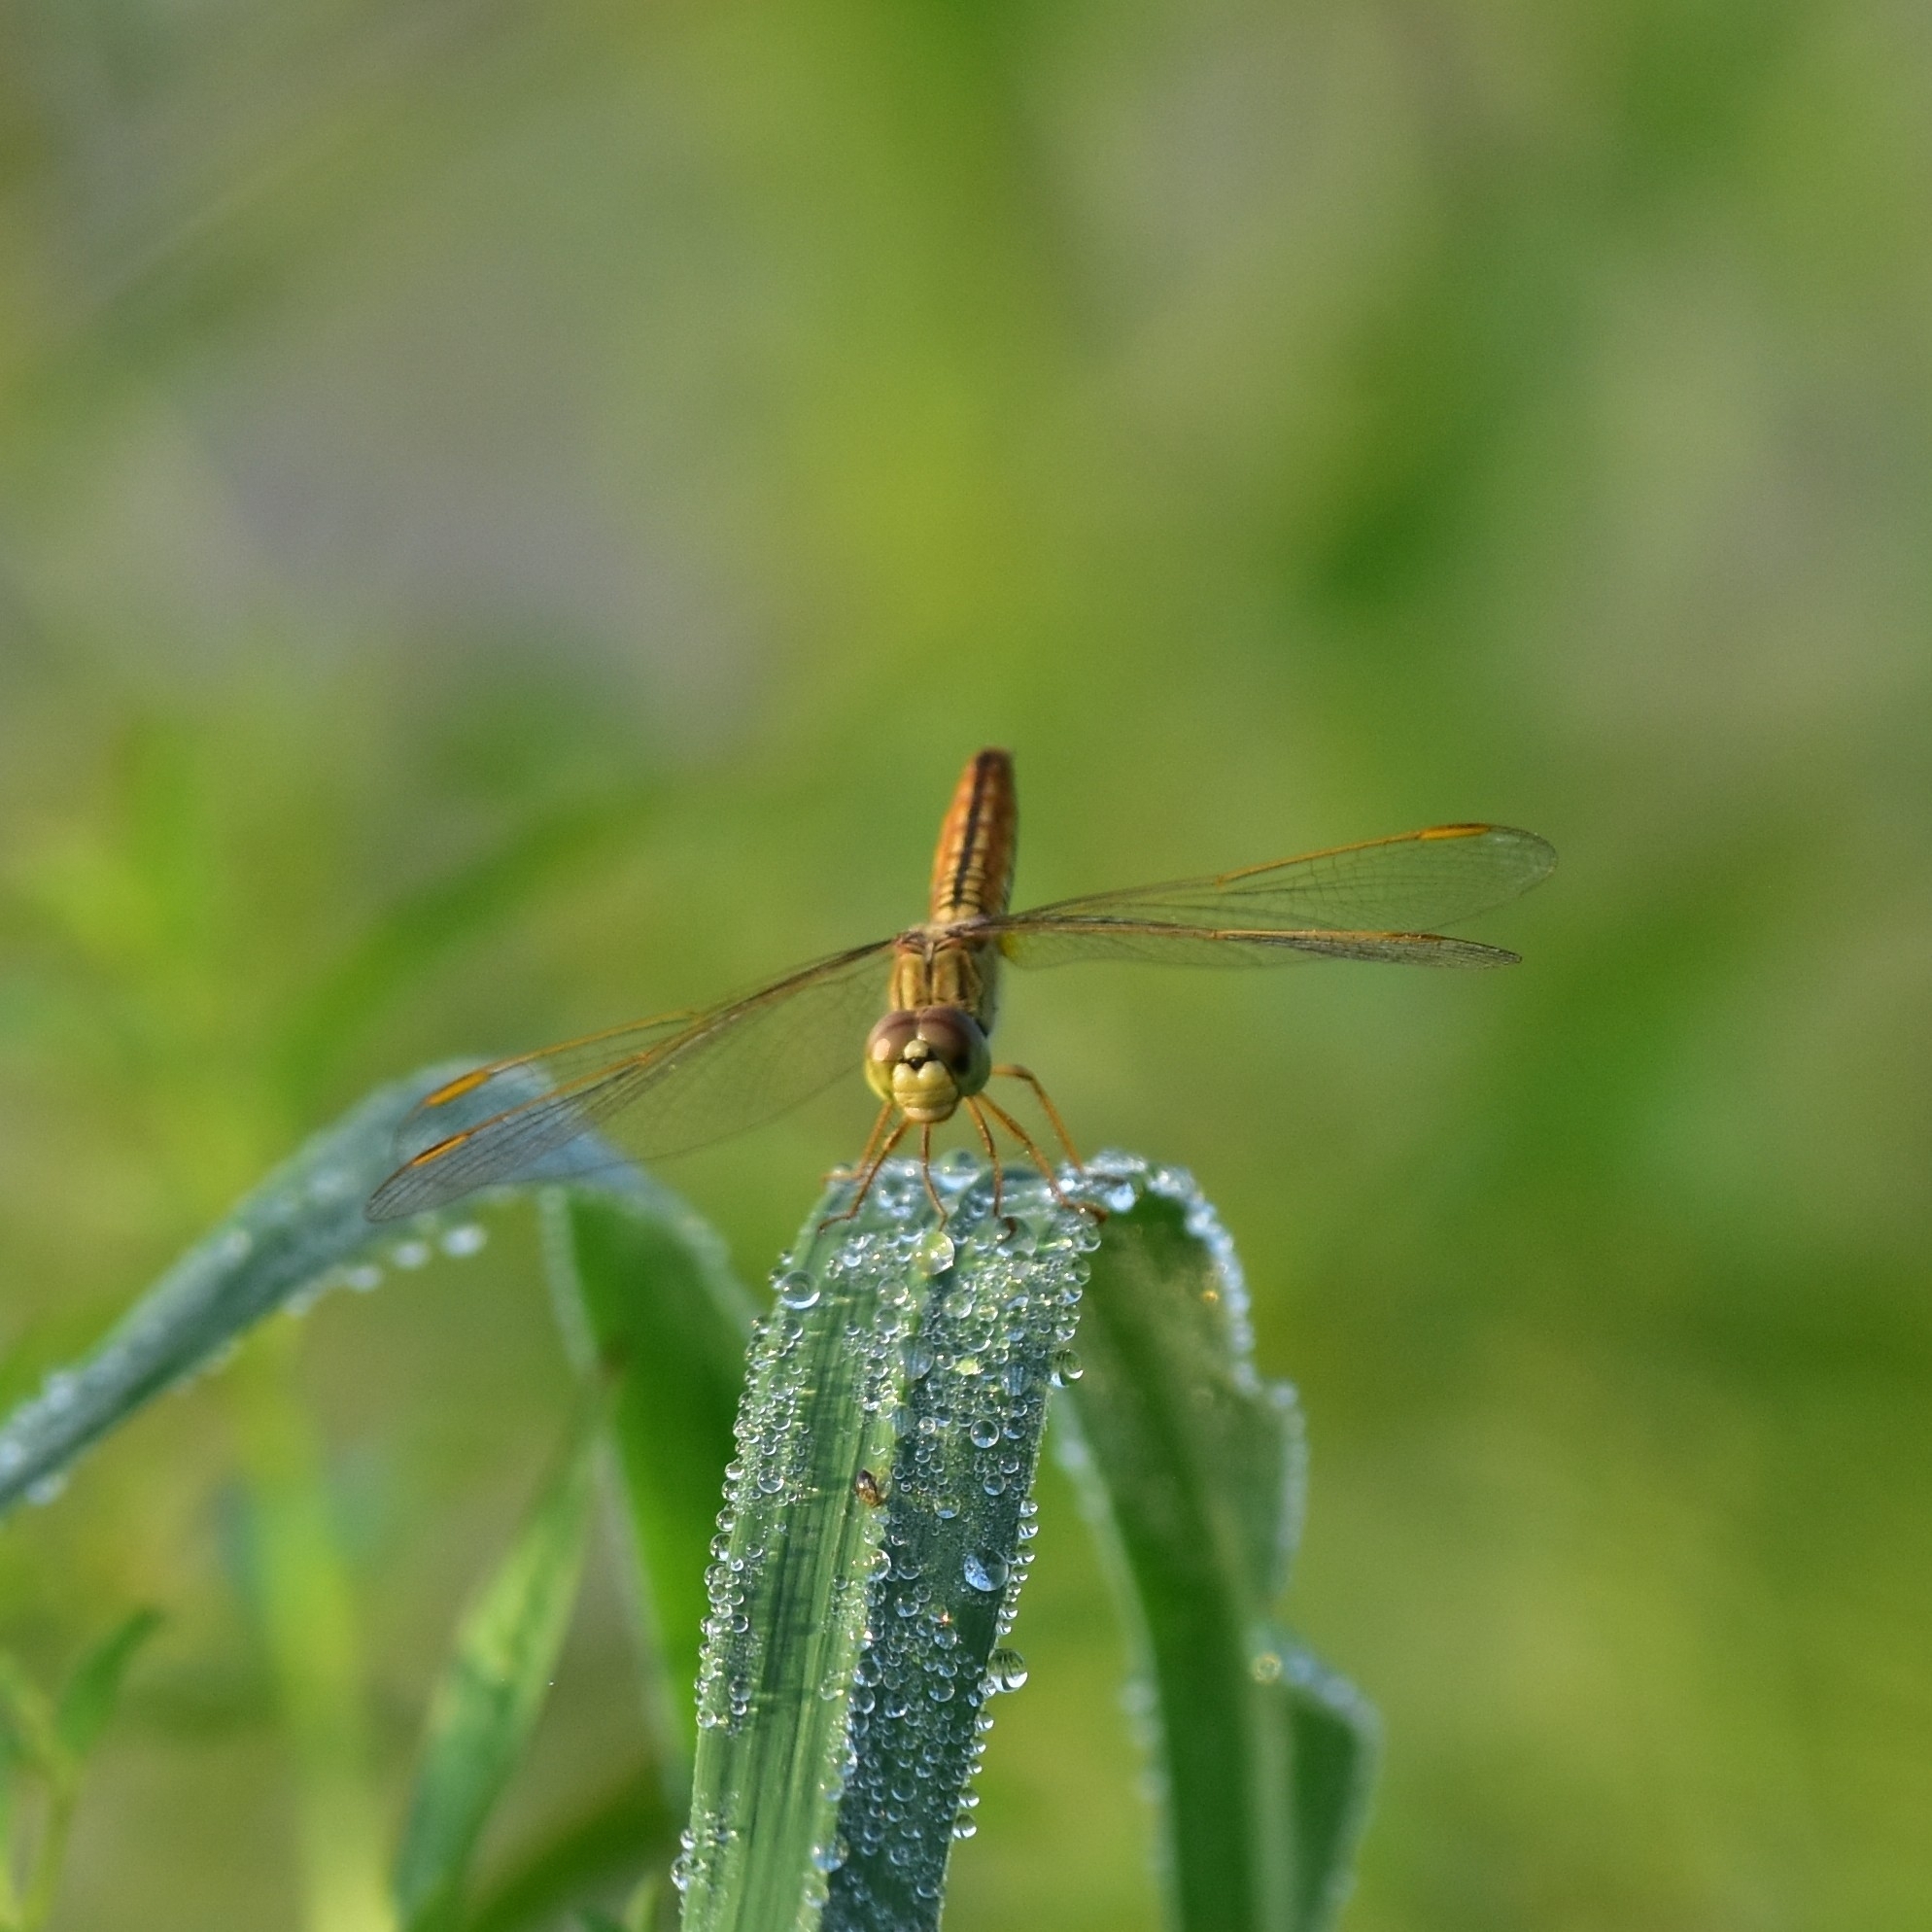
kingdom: Animalia
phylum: Arthropoda
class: Insecta
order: Odonata
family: Libellulidae
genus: Brachythemis
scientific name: Brachythemis contaminata
